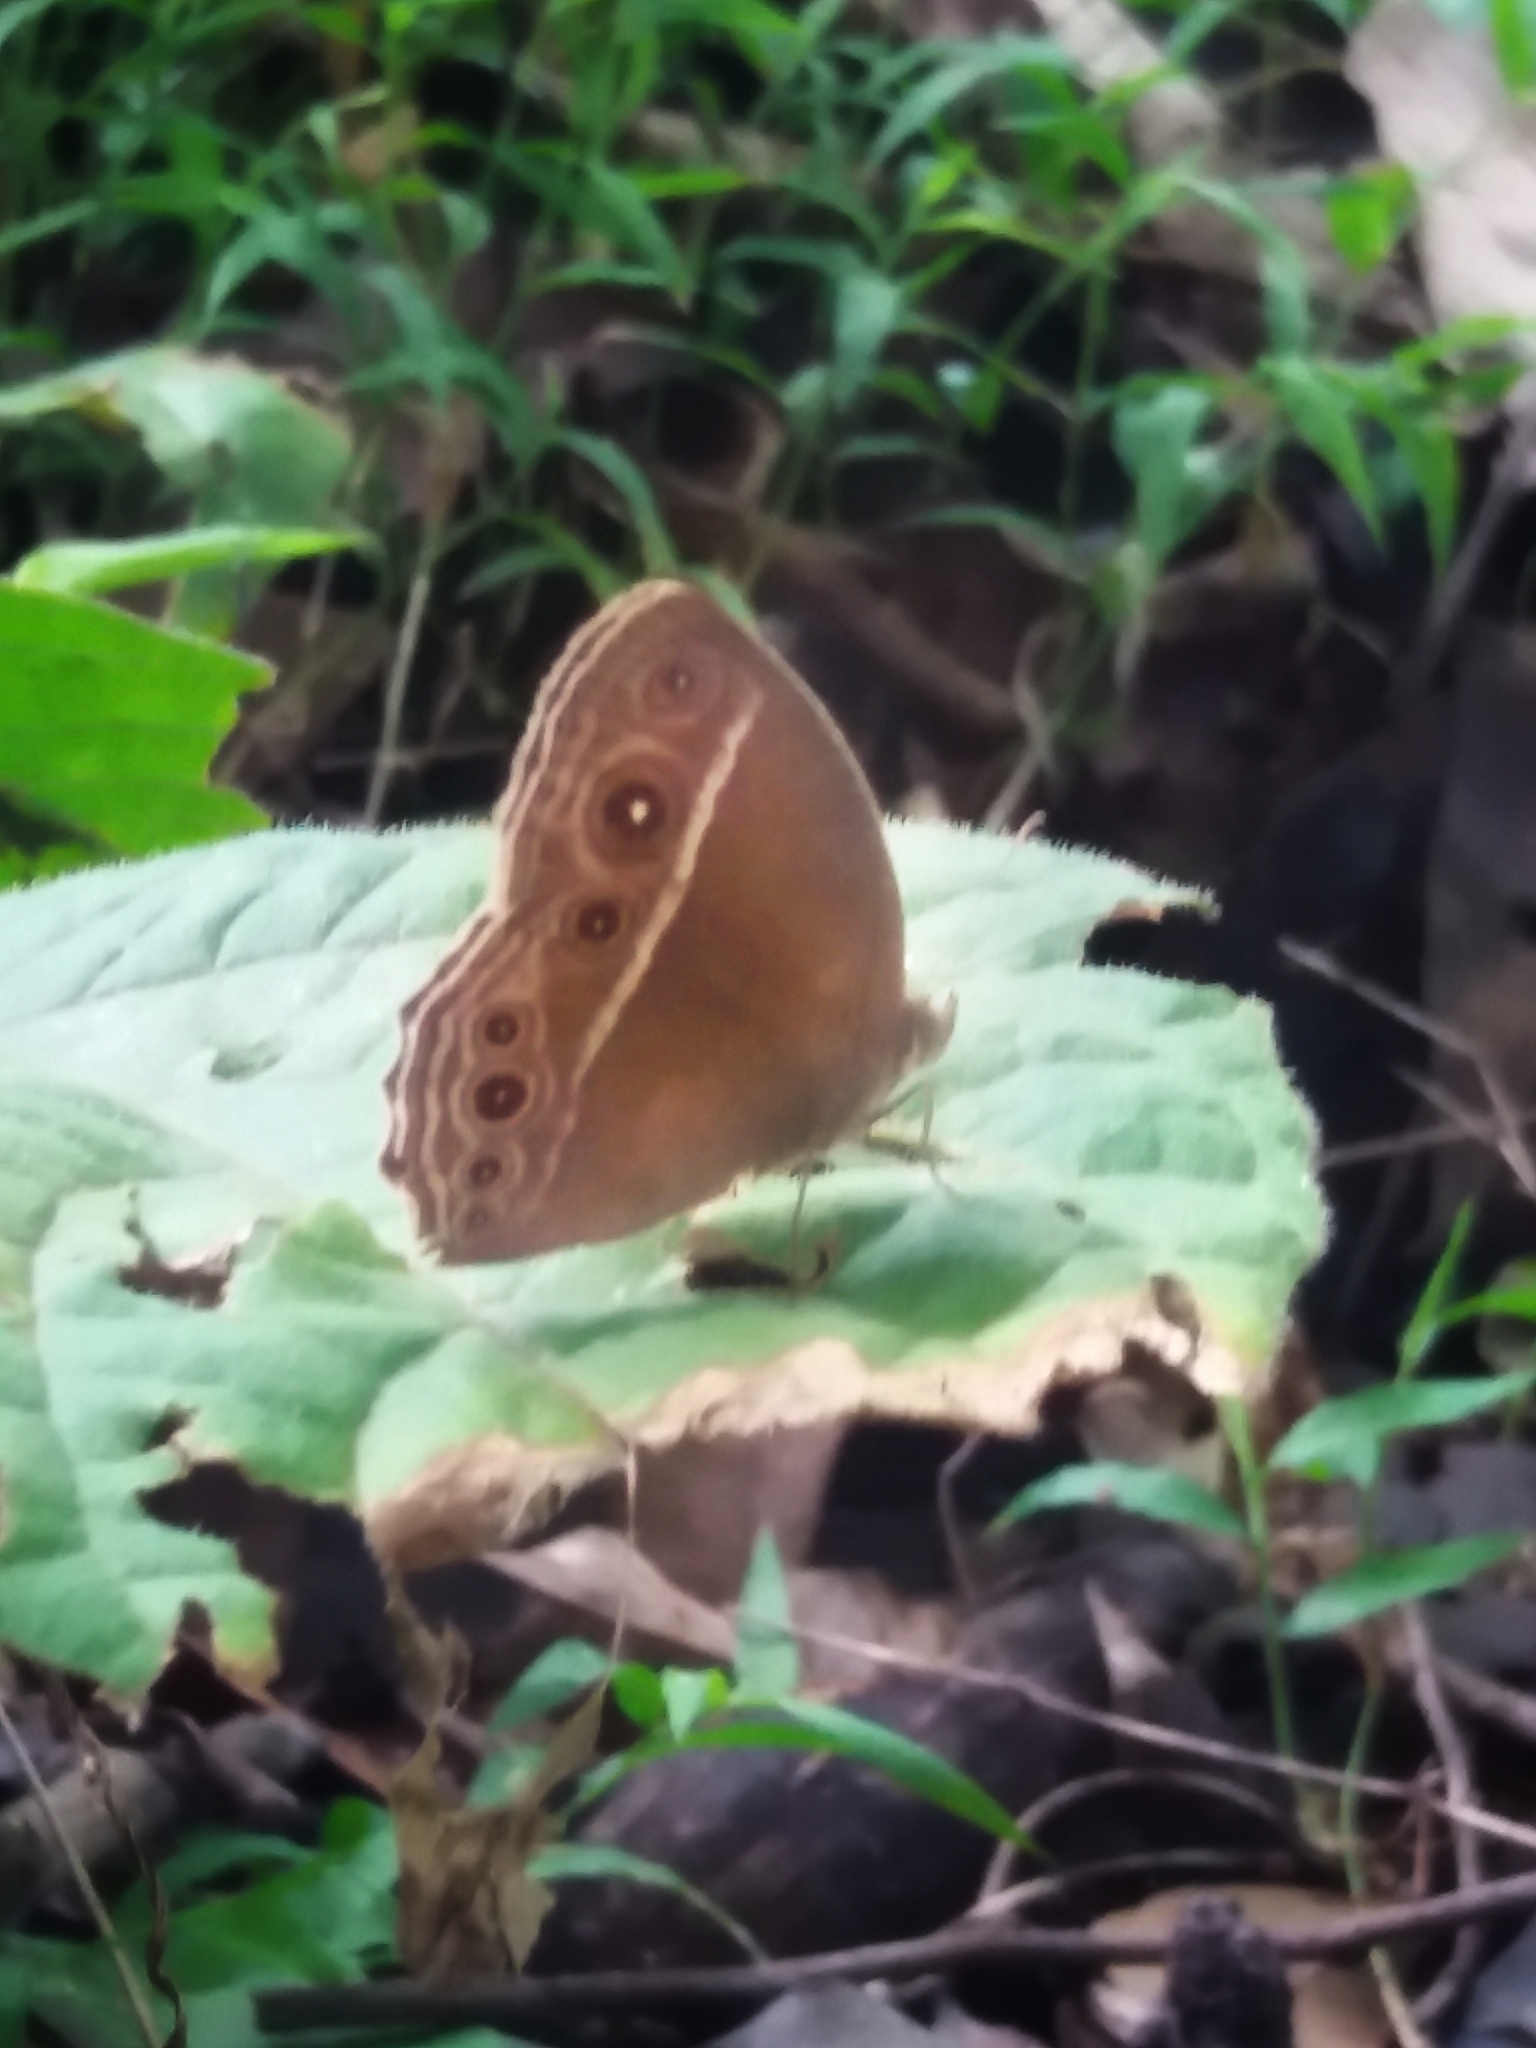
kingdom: Animalia
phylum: Arthropoda
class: Insecta
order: Lepidoptera
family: Nymphalidae
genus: Mycalesis
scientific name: Mycalesis perseus
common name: Dingy bushbrown
